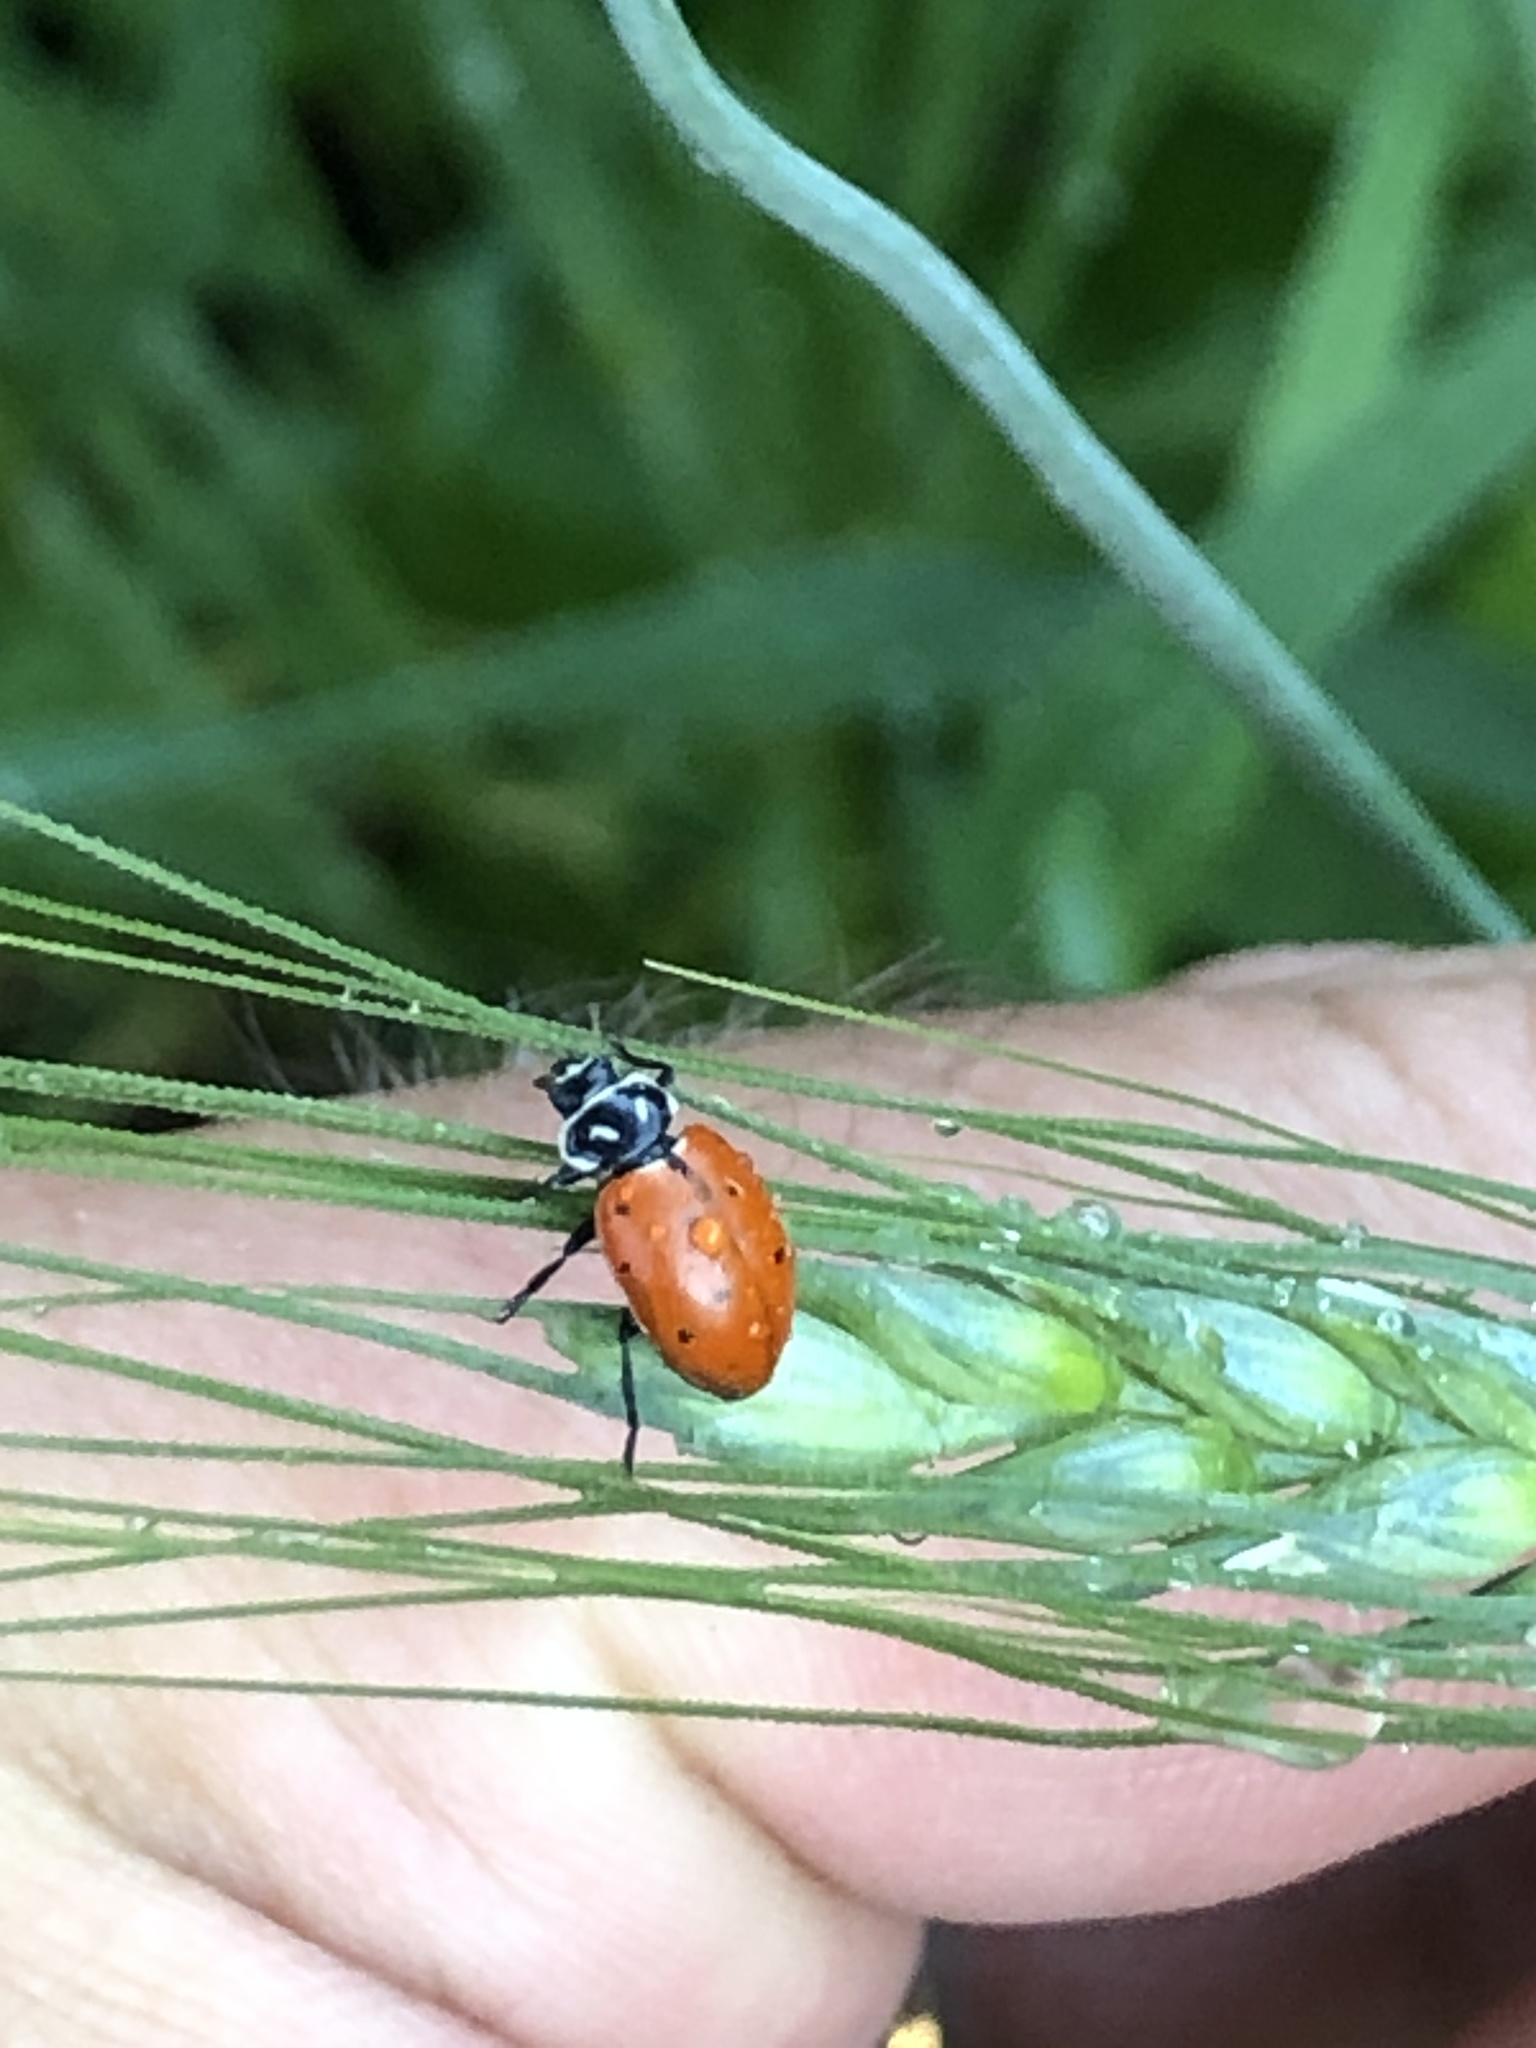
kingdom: Animalia
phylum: Arthropoda
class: Insecta
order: Coleoptera
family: Coccinellidae
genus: Hippodamia
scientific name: Hippodamia convergens
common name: Convergent lady beetle
